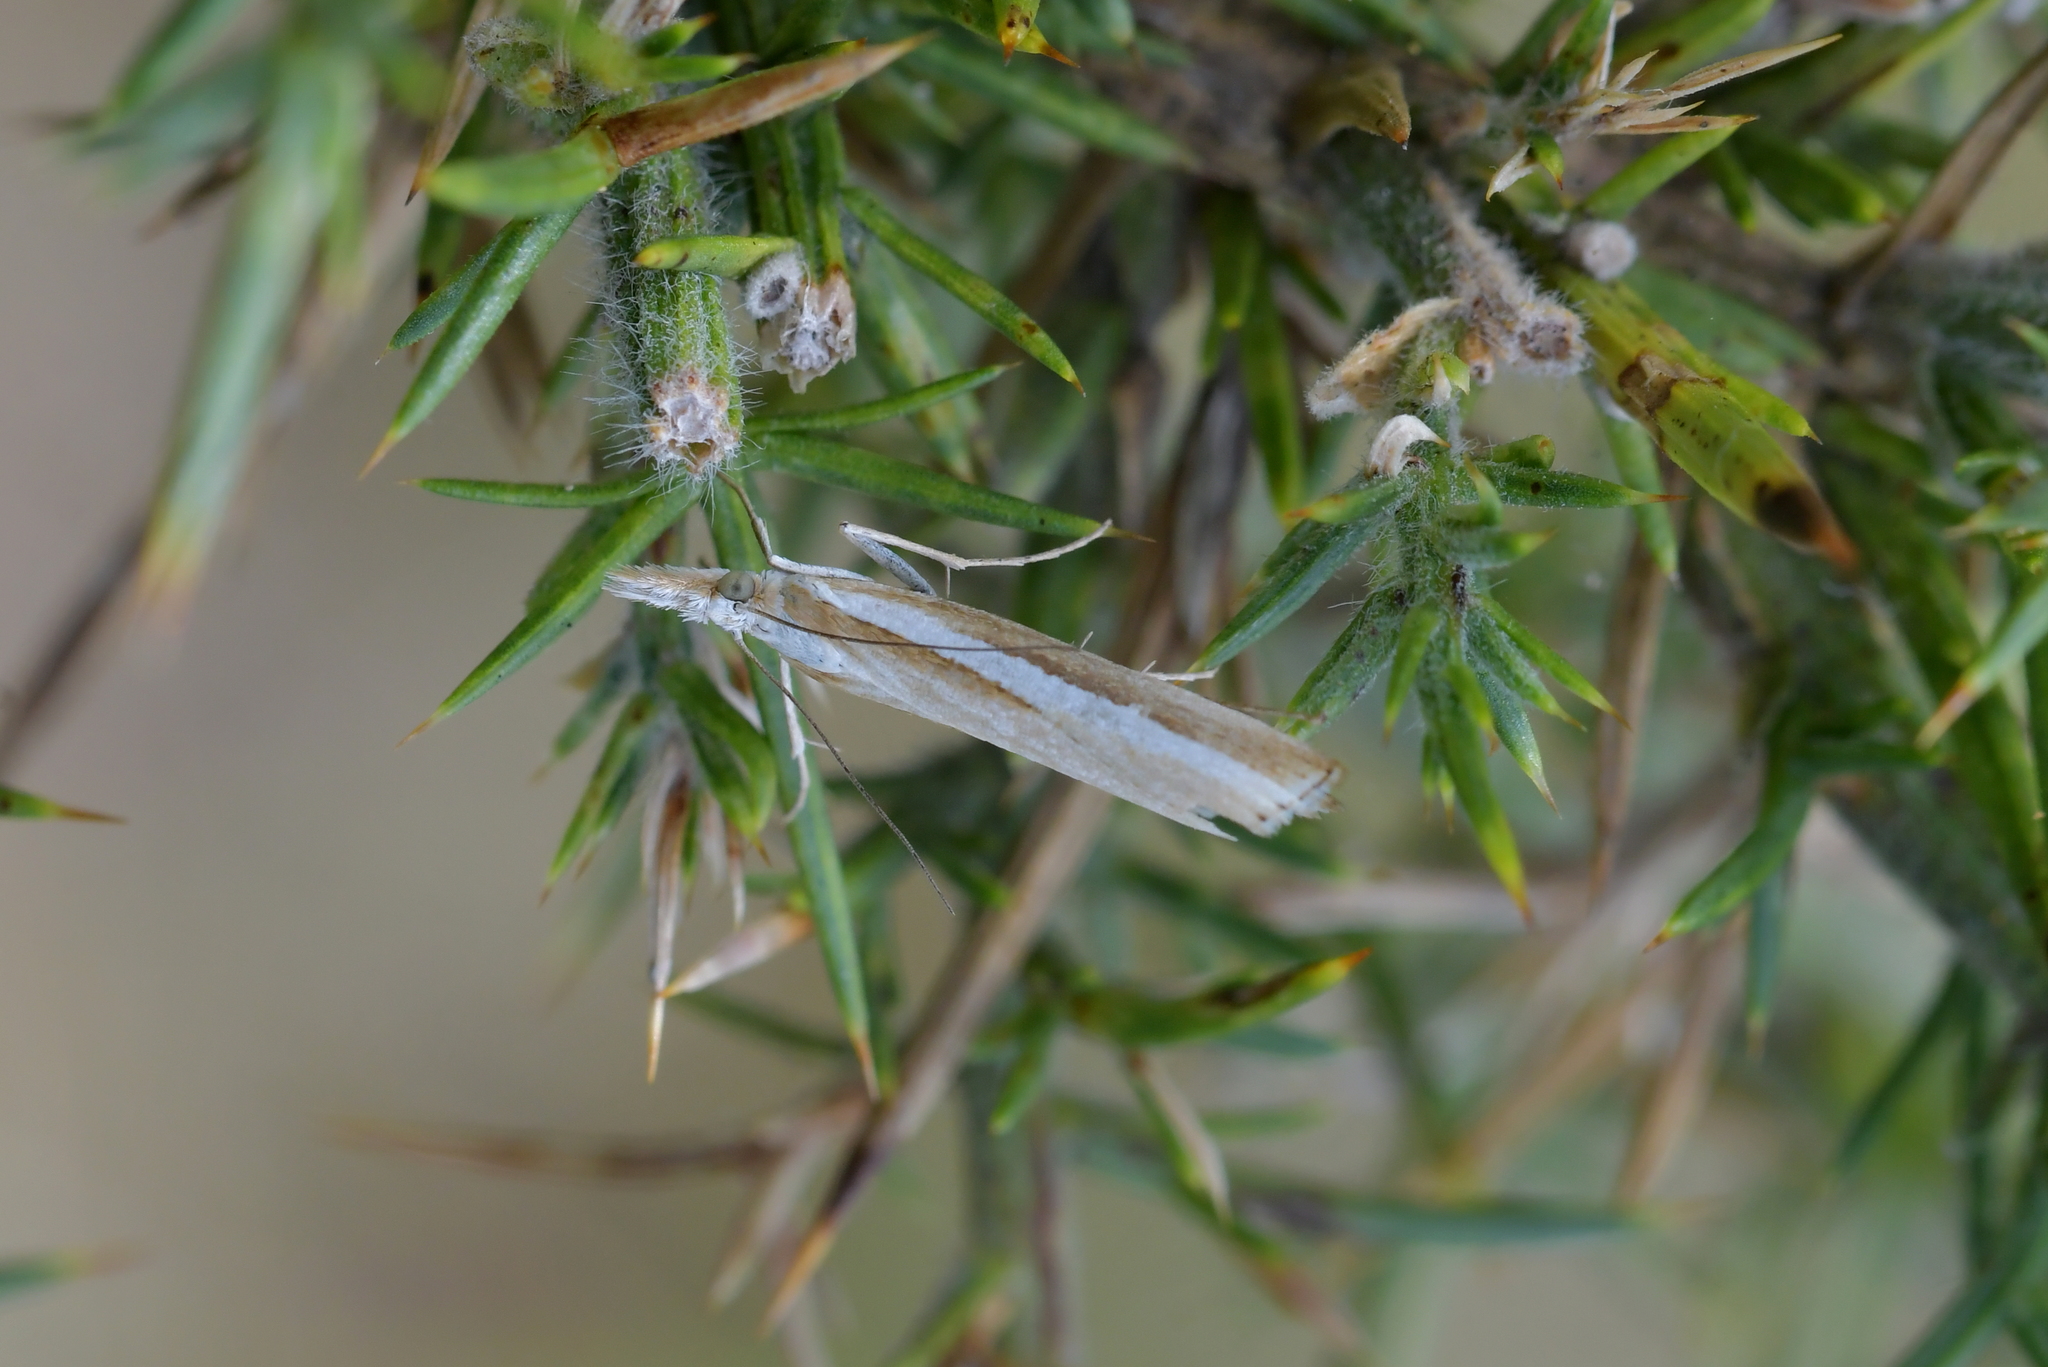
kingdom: Animalia
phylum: Arthropoda
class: Insecta
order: Lepidoptera
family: Crambidae
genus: Orocrambus
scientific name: Orocrambus vittellus
